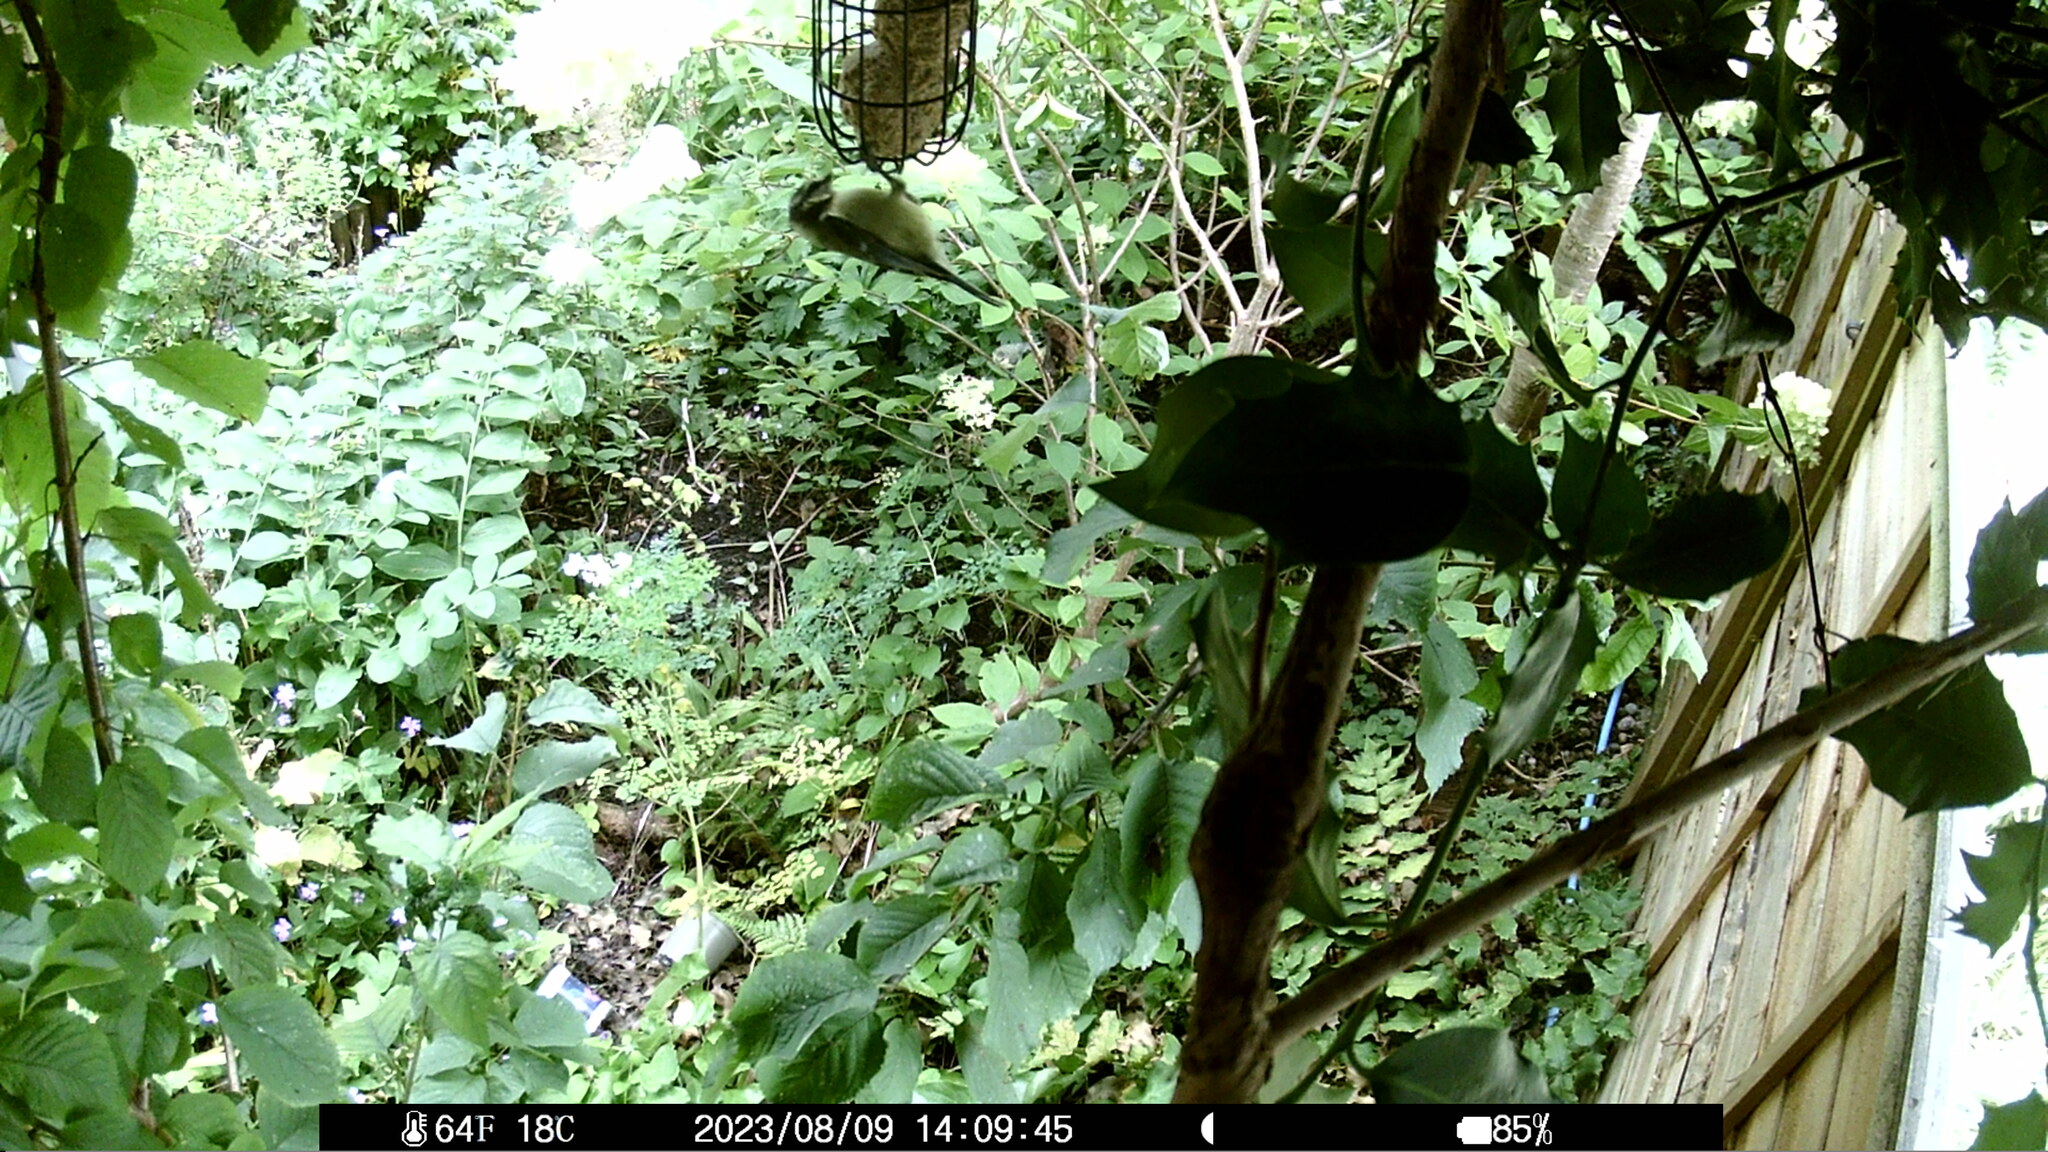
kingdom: Animalia
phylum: Chordata
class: Aves
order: Passeriformes
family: Paridae
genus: Cyanistes
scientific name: Cyanistes caeruleus
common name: Eurasian blue tit
